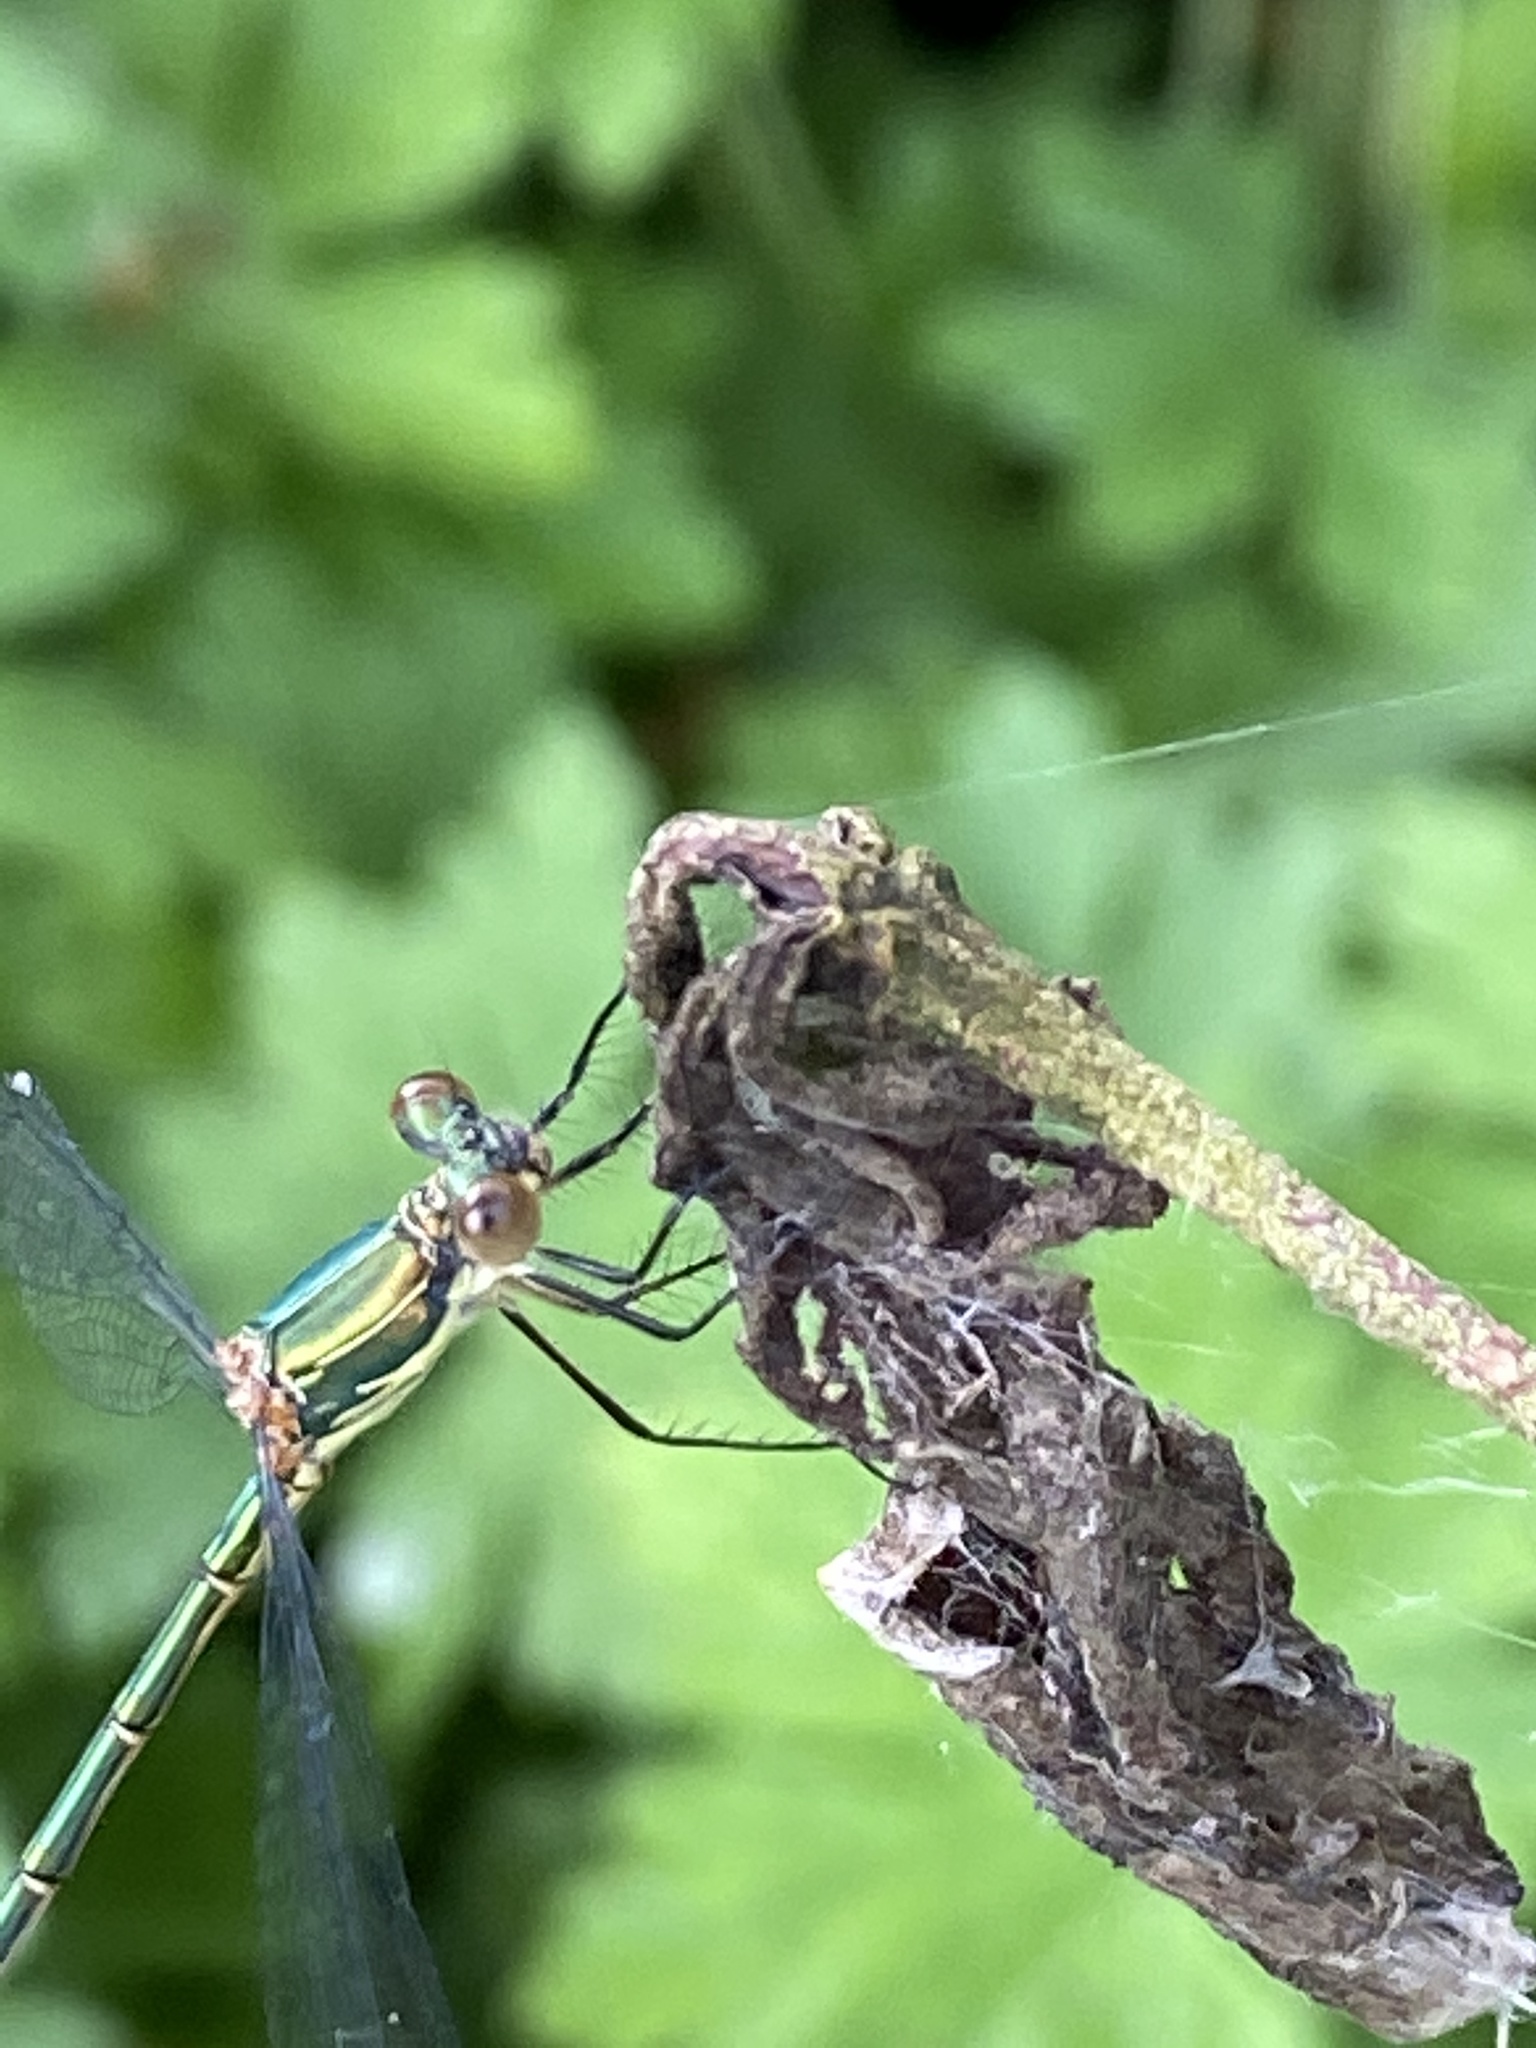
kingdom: Animalia
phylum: Arthropoda
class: Insecta
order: Odonata
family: Lestidae
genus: Chalcolestes
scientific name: Chalcolestes viridis
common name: Green emerald damselfly
